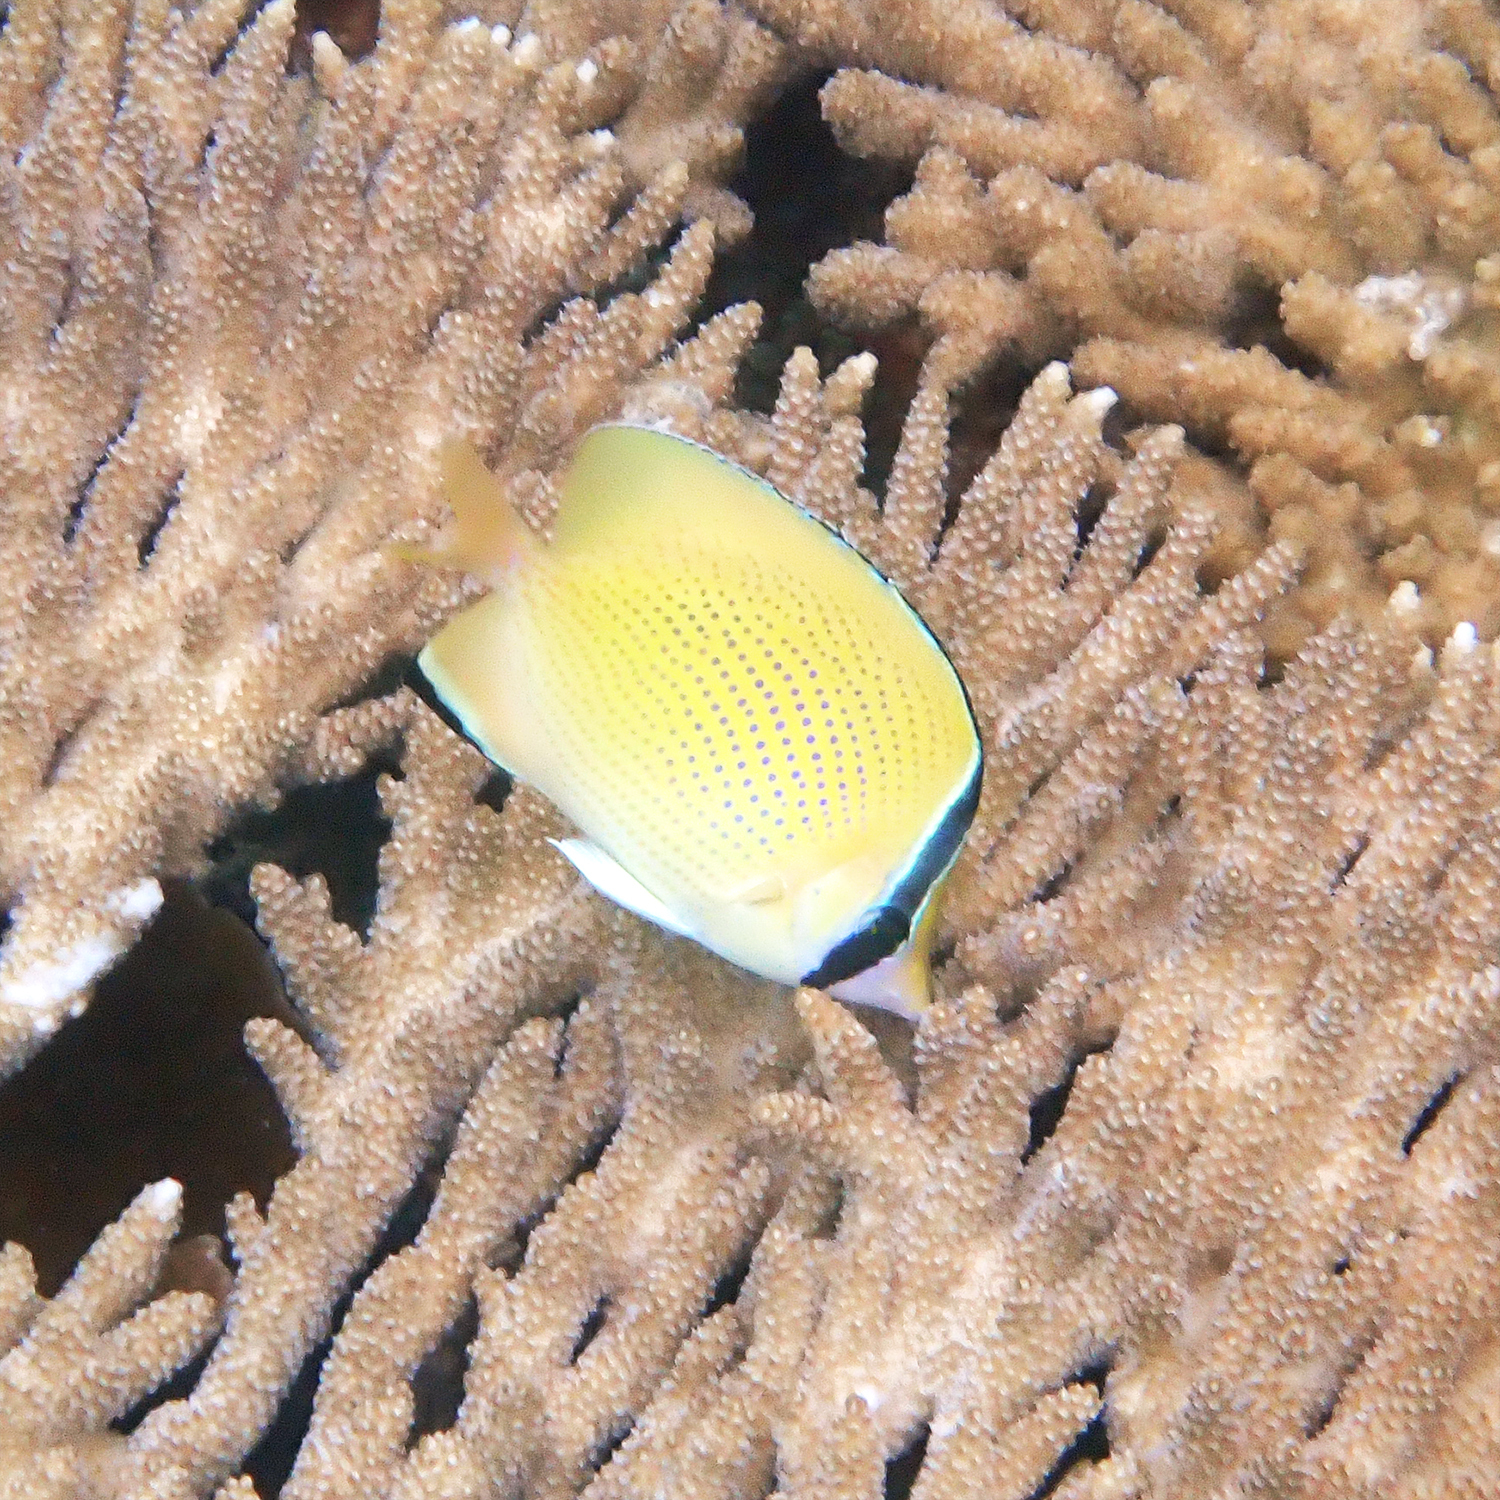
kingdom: Animalia
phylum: Chordata
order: Perciformes
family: Chaetodontidae
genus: Chaetodon
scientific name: Chaetodon citrinellus
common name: Speckled butterflyfish
